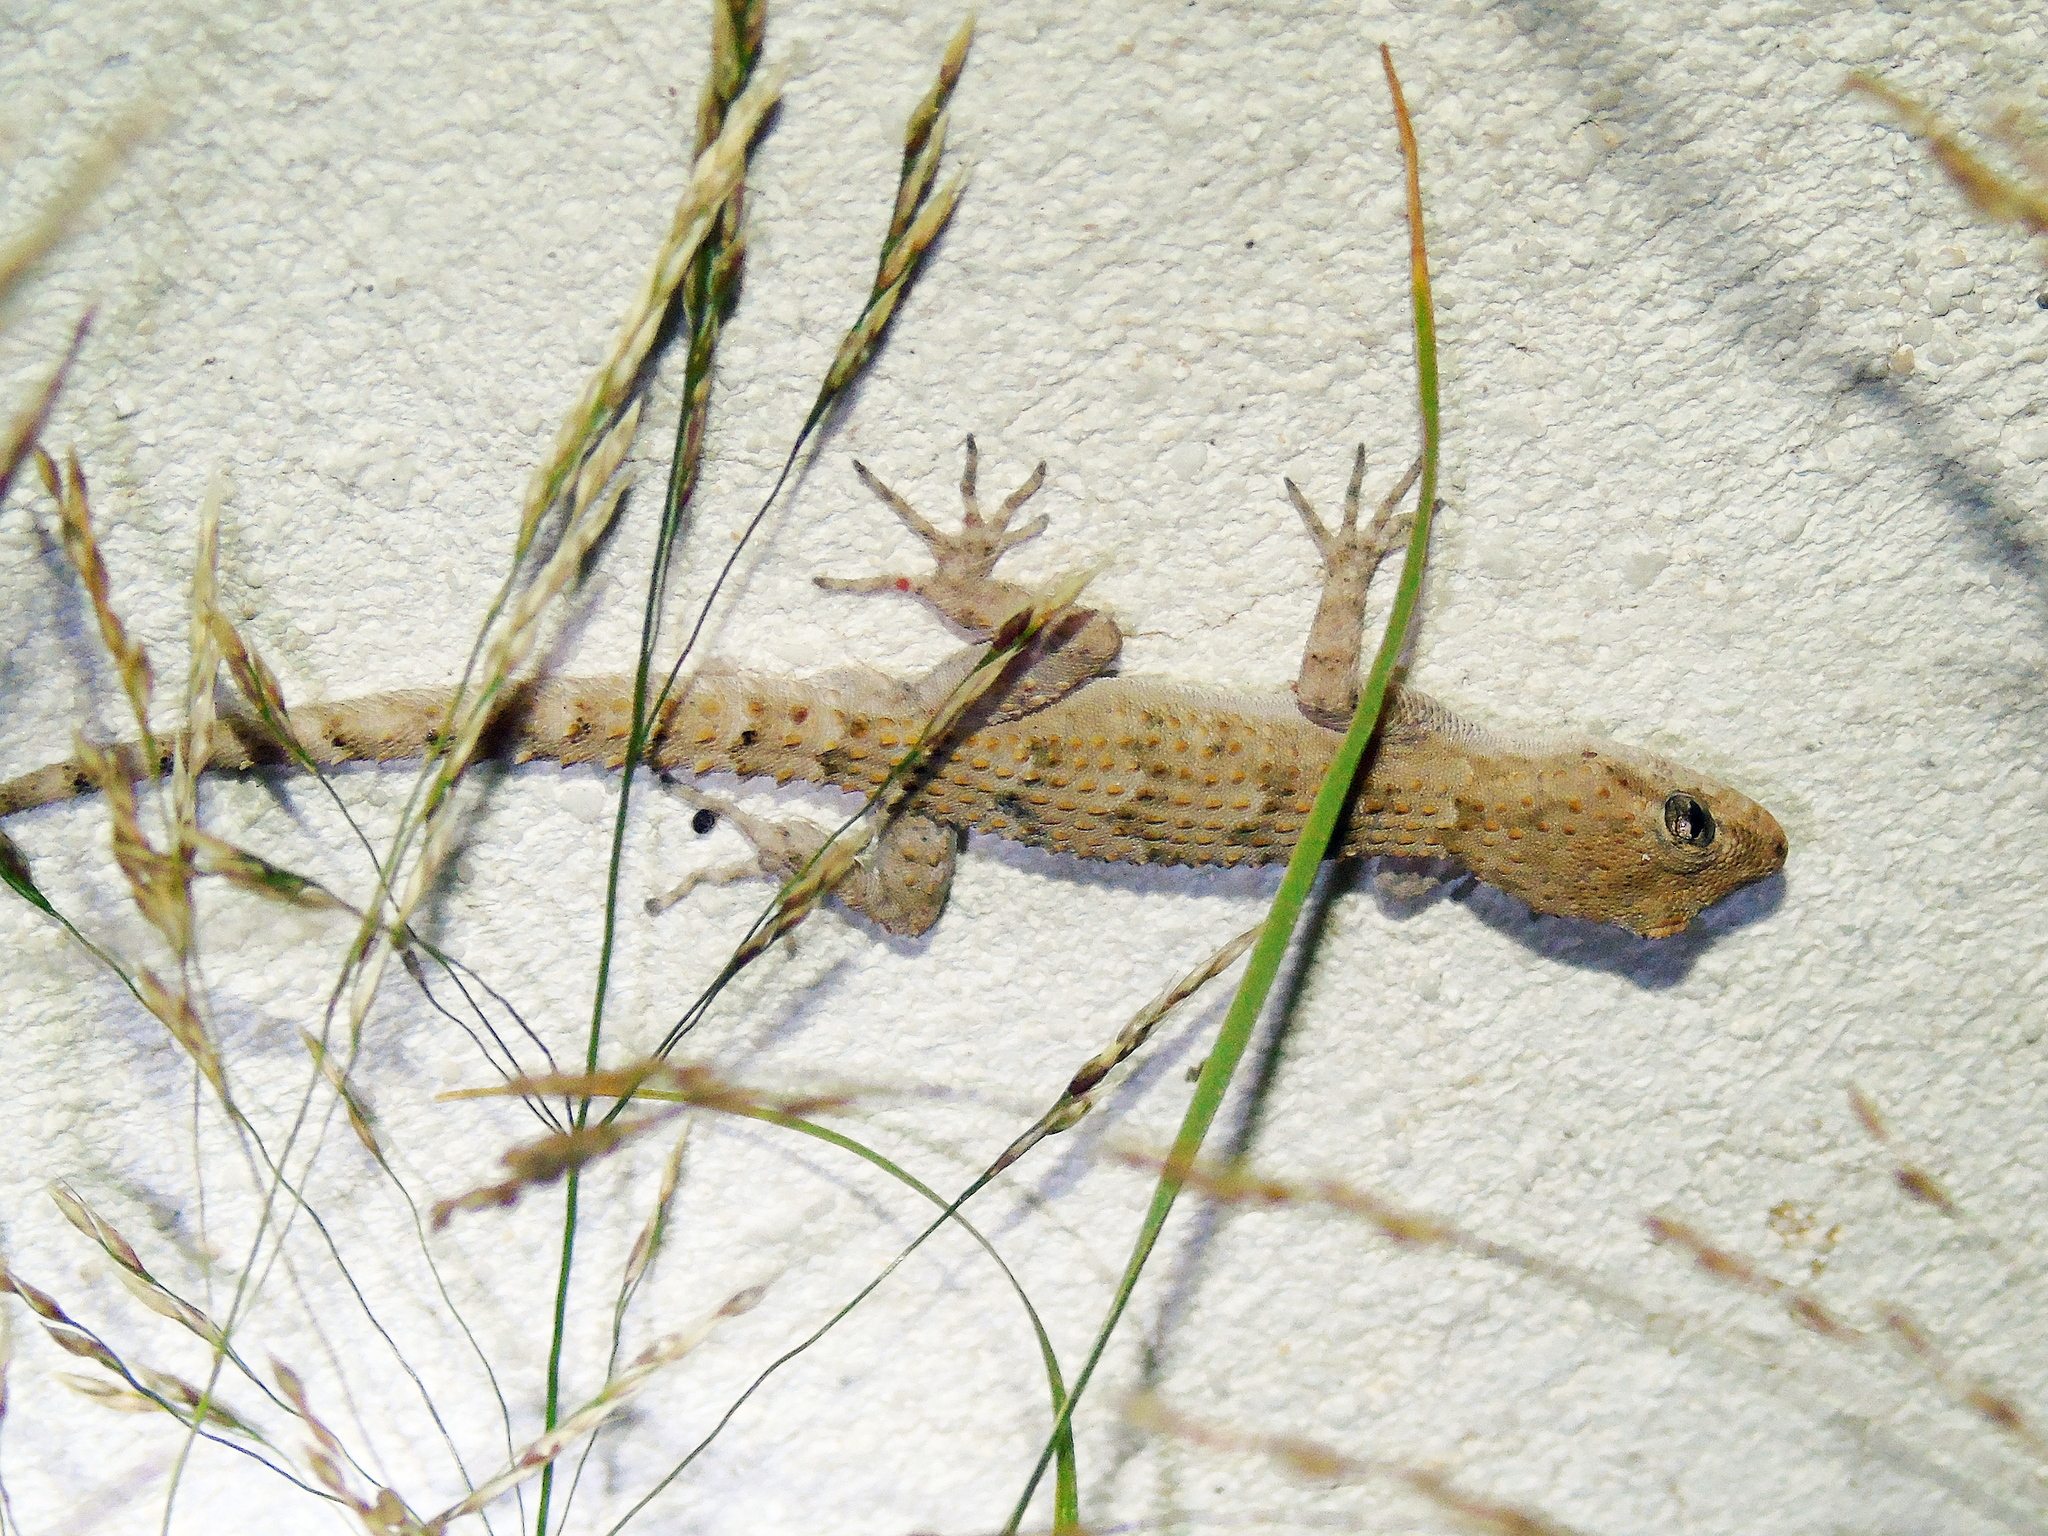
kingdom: Animalia
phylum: Chordata
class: Squamata
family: Gekkonidae
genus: Mediodactylus
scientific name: Mediodactylus kotschyi
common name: Kotschy's gecko
